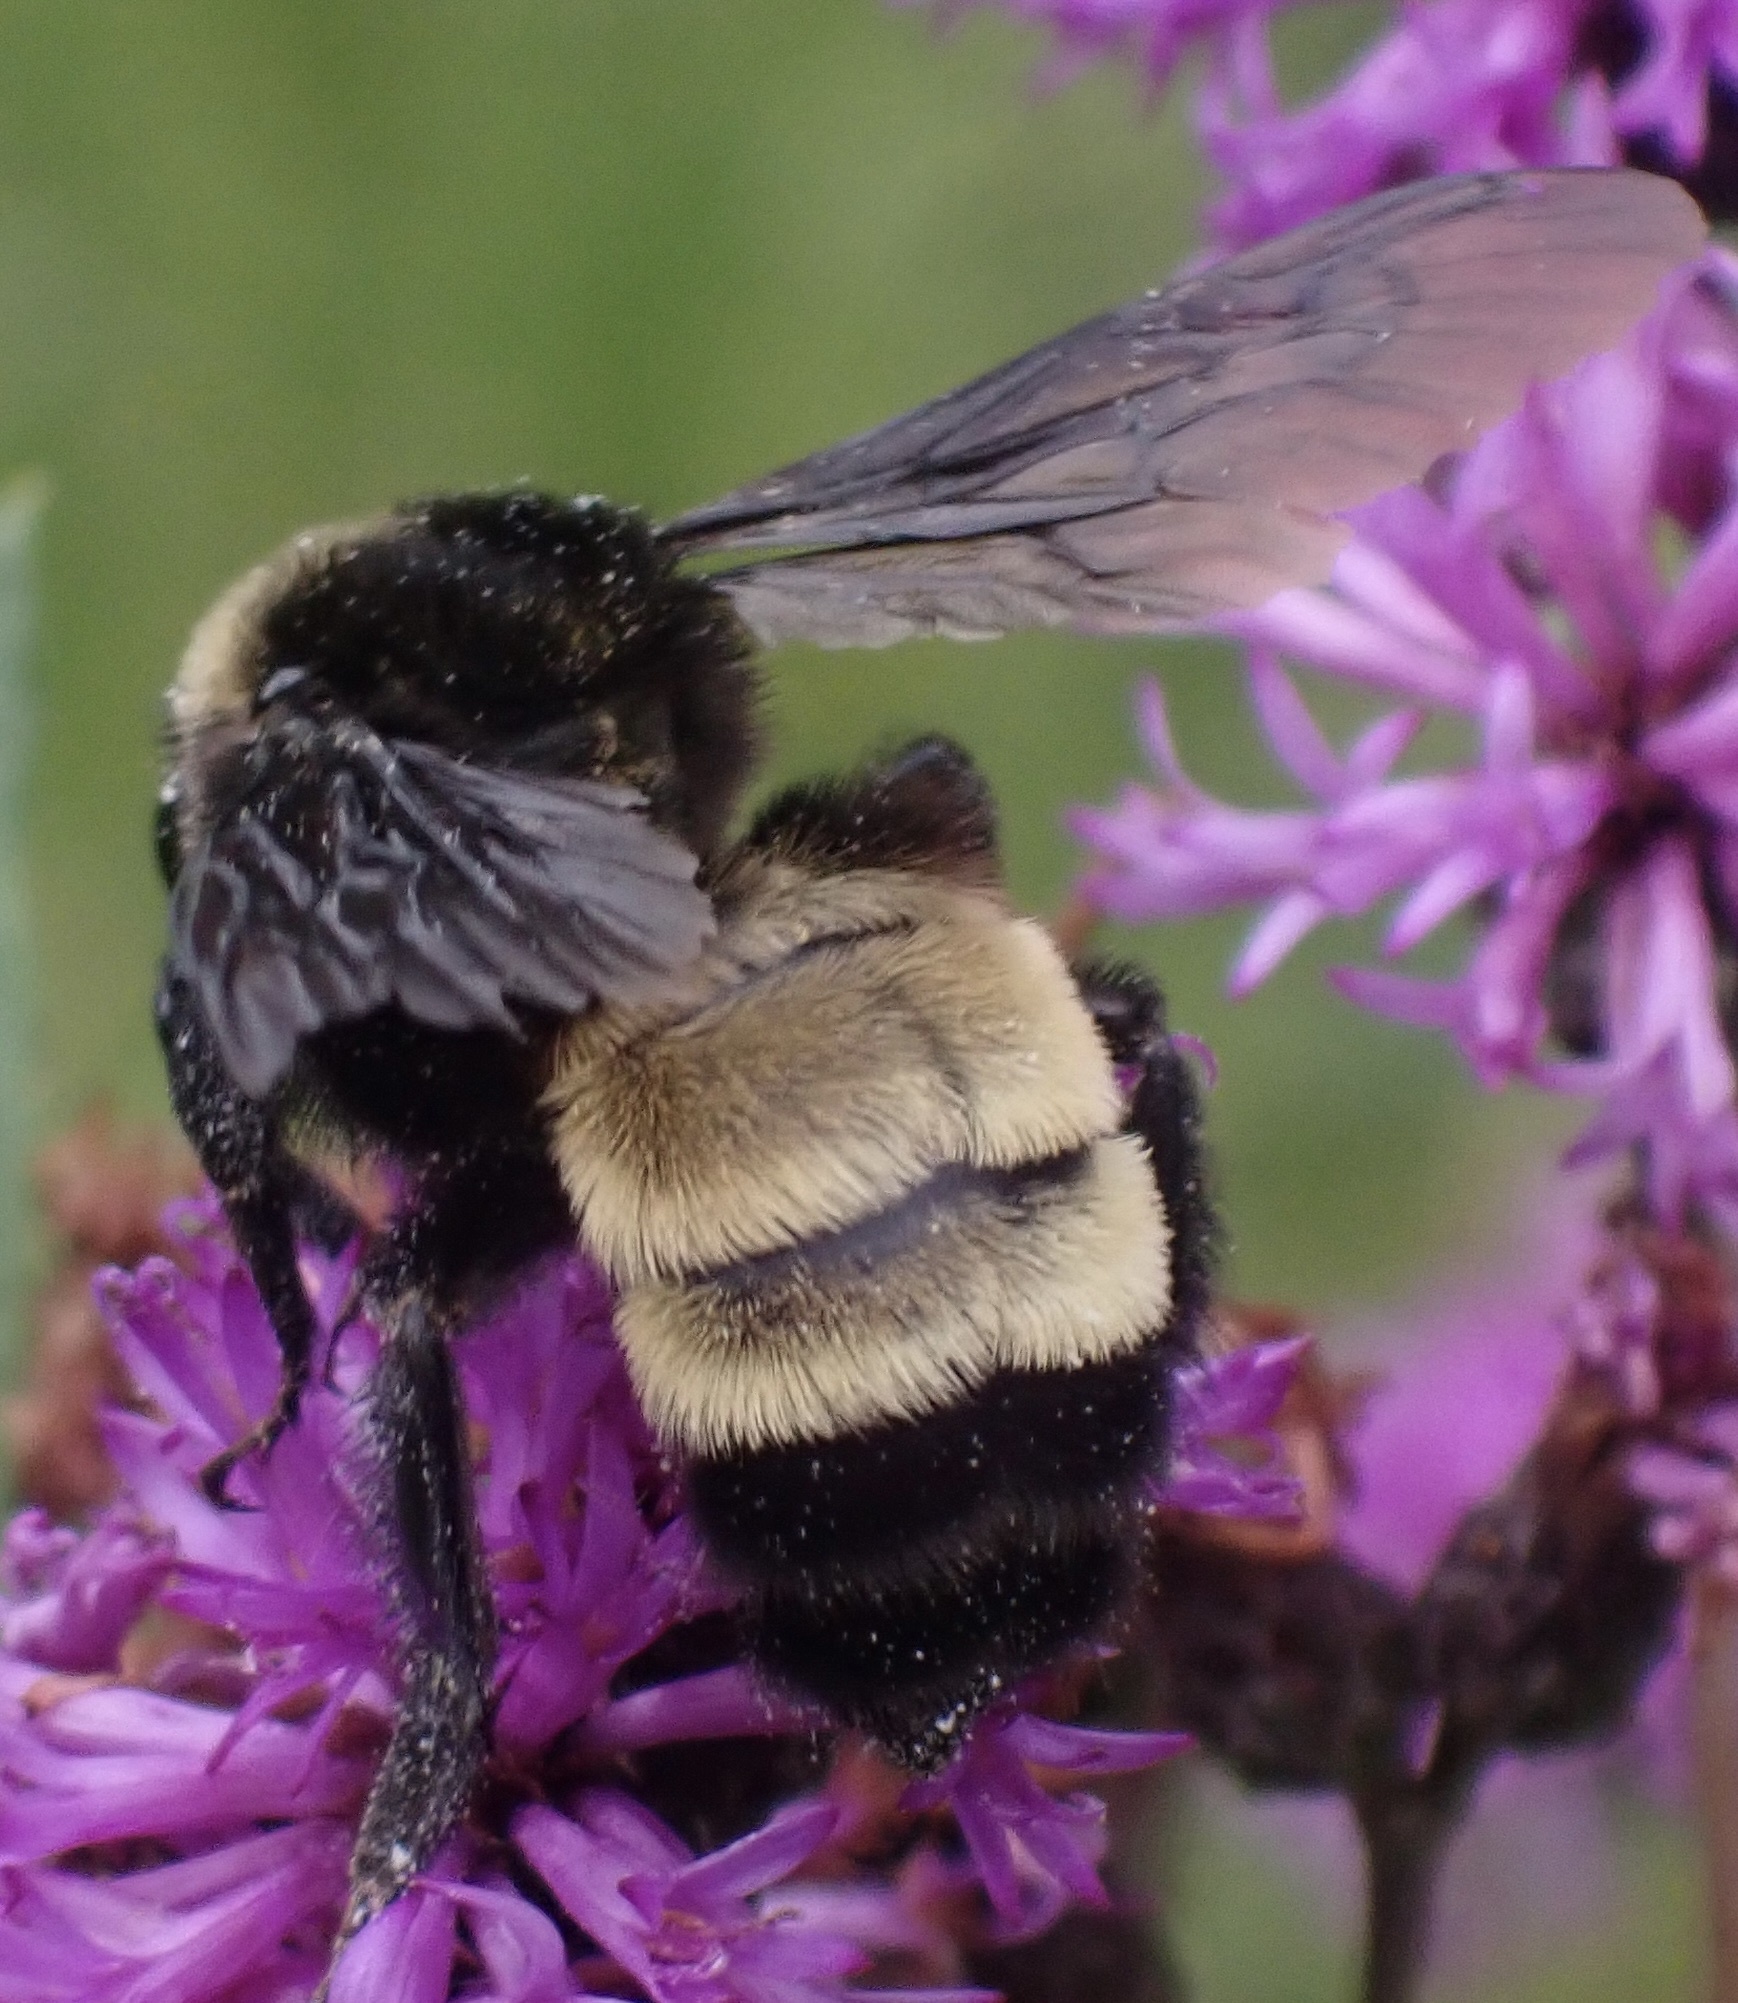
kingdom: Animalia
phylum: Arthropoda
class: Insecta
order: Hymenoptera
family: Apidae
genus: Bombus
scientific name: Bombus pensylvanicus
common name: Bumble bee
